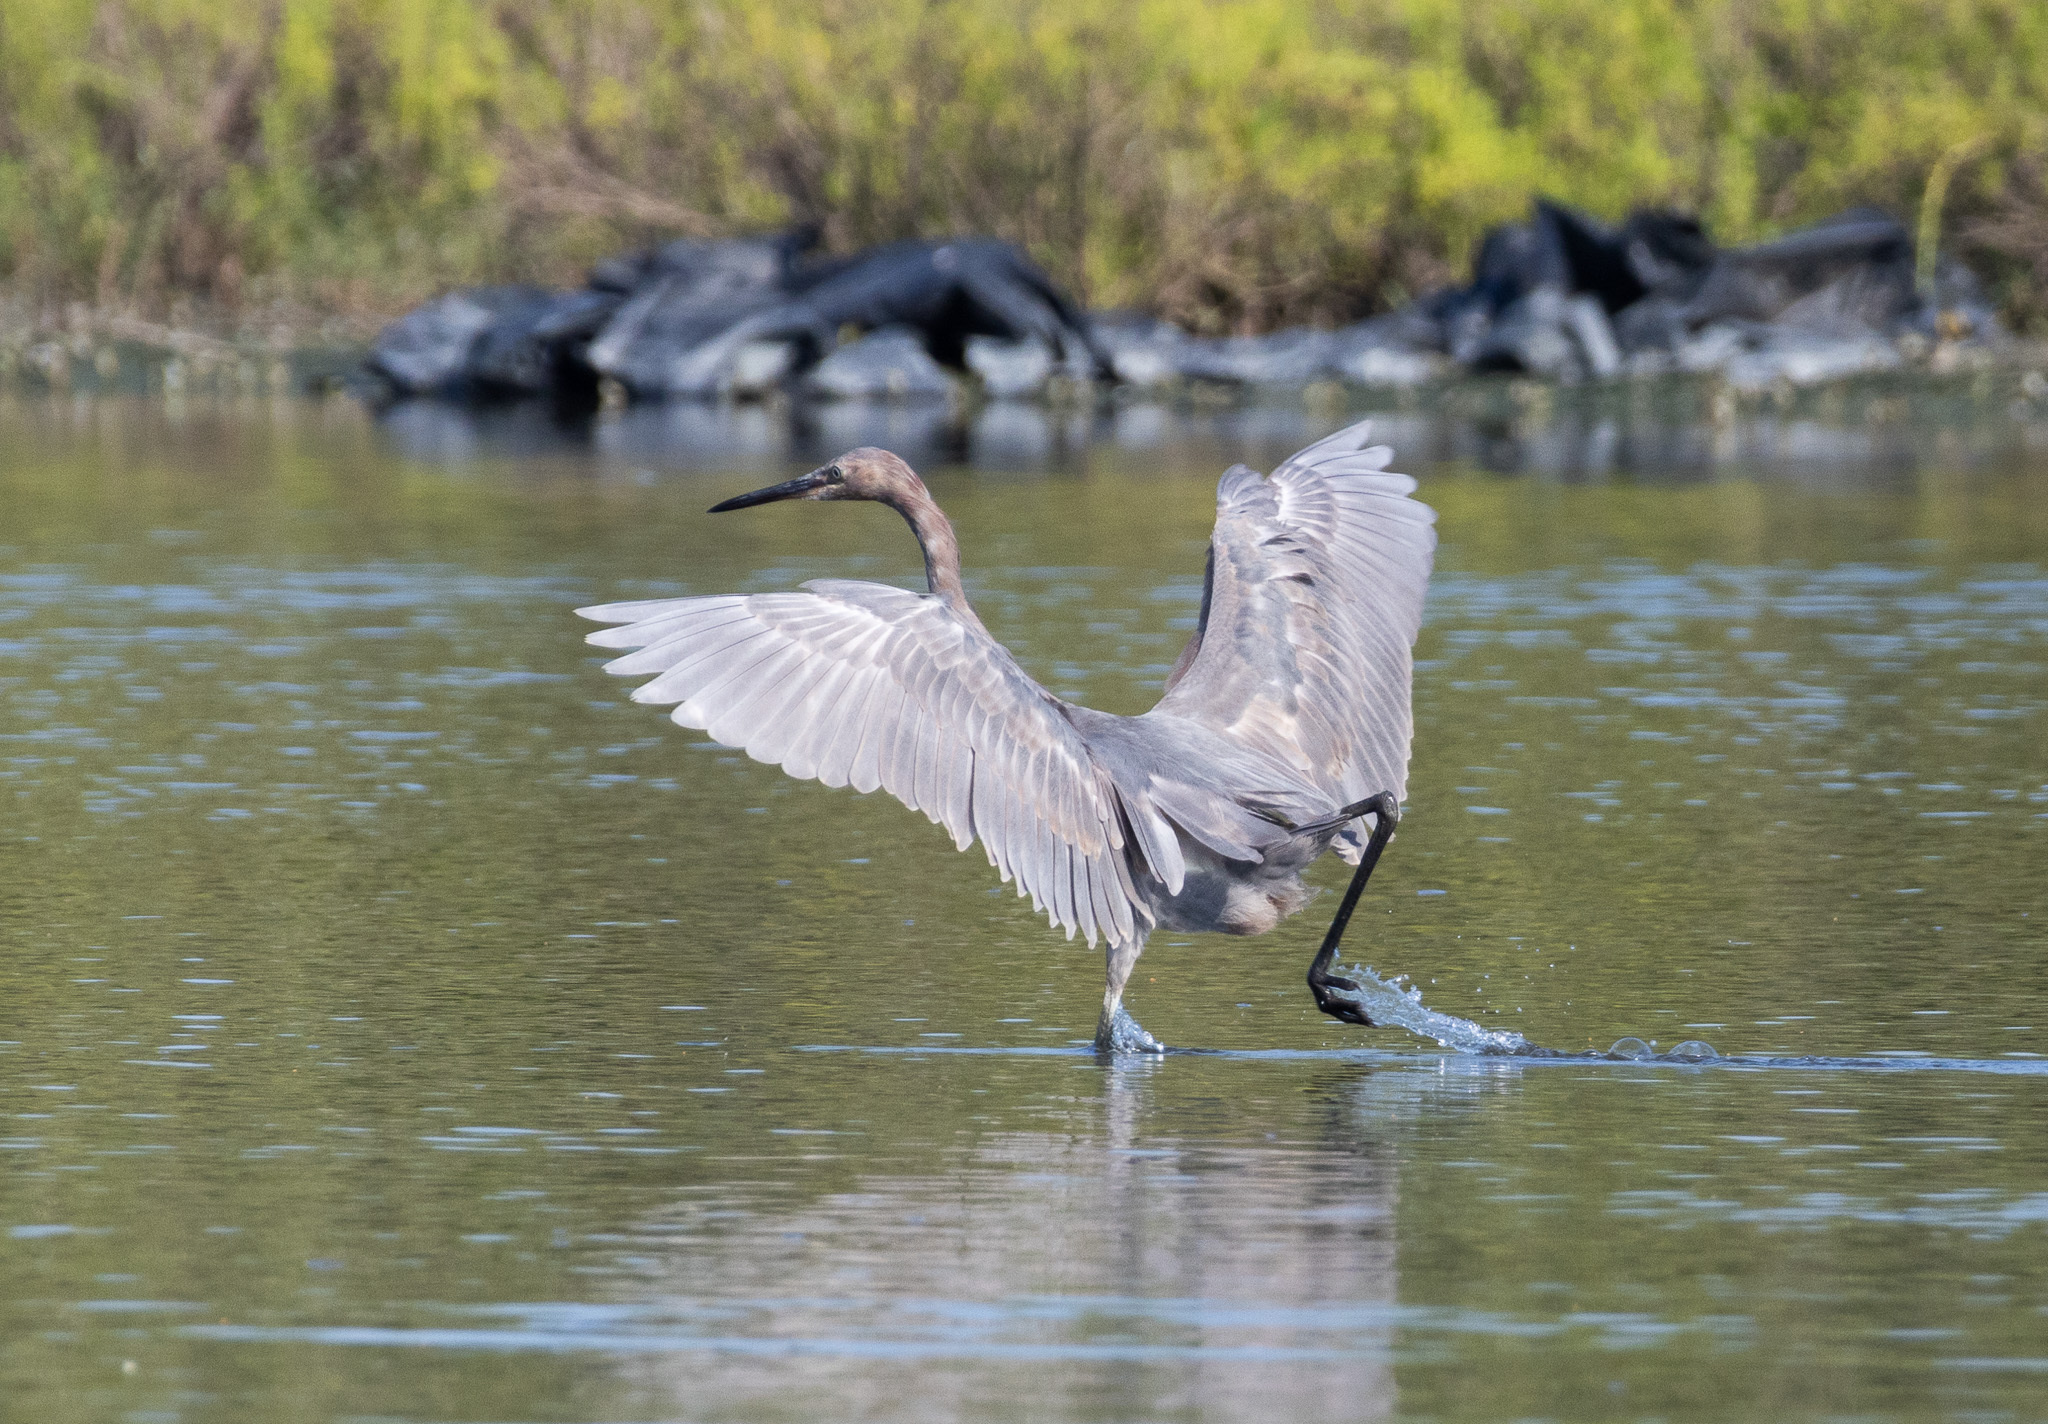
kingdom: Animalia
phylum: Chordata
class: Aves
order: Pelecaniformes
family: Ardeidae
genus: Egretta
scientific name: Egretta rufescens
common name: Reddish egret
